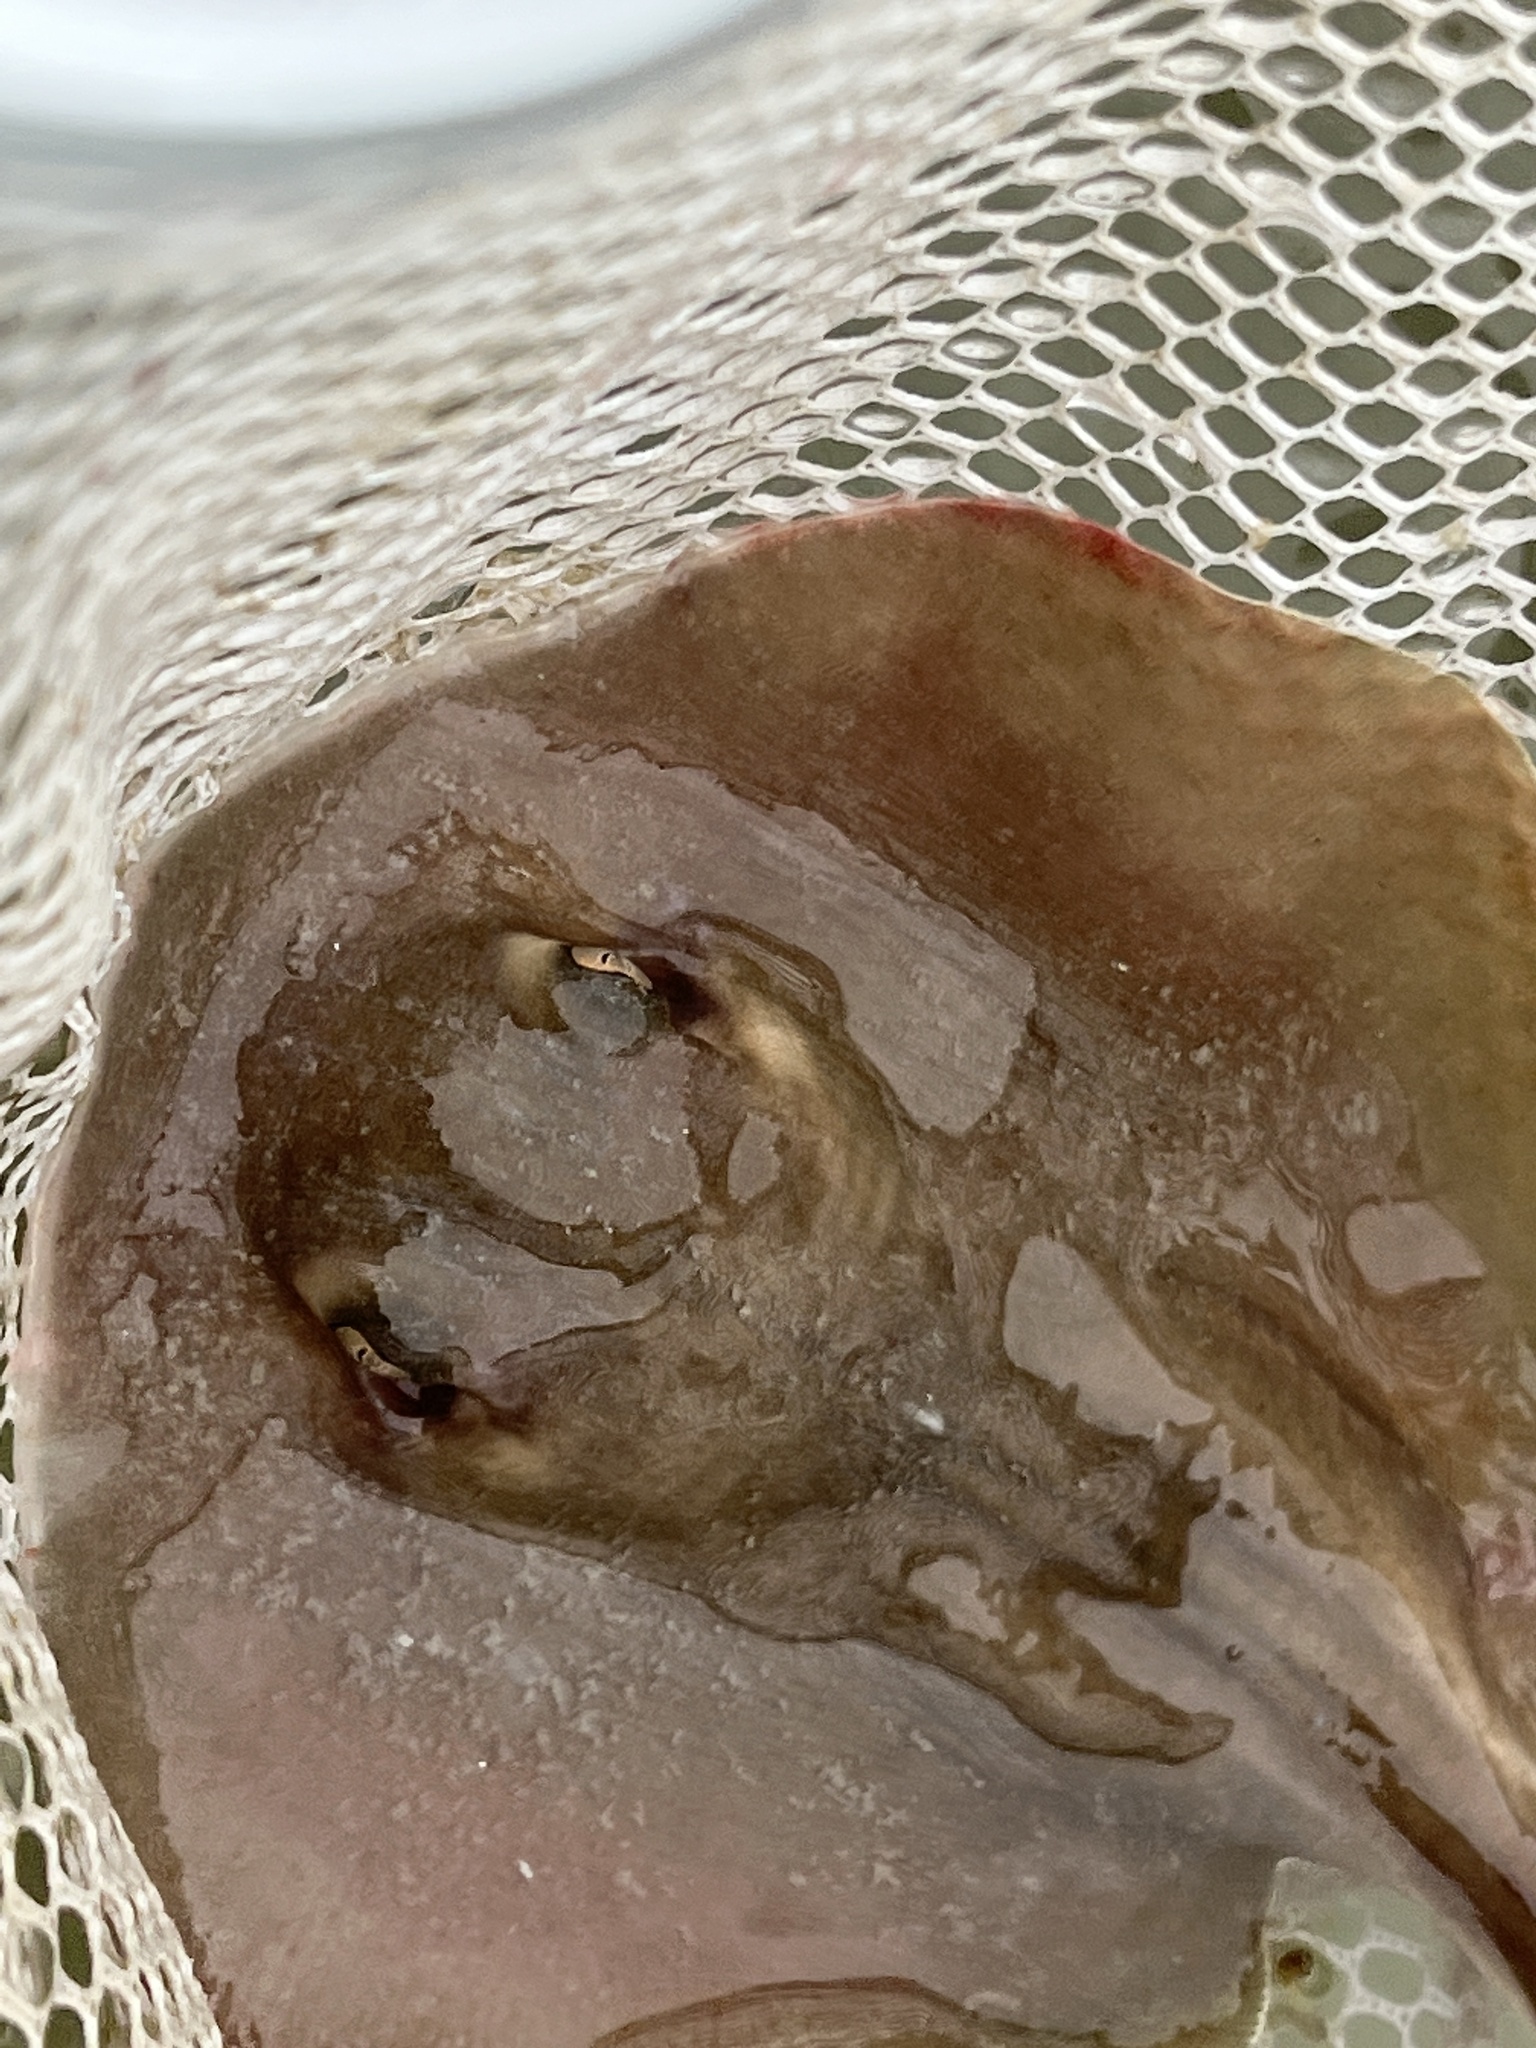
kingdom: Animalia
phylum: Chordata
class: Elasmobranchii
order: Myliobatiformes
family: Dasyatidae
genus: Hypanus
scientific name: Hypanus sabinus
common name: Atlantic stingray
